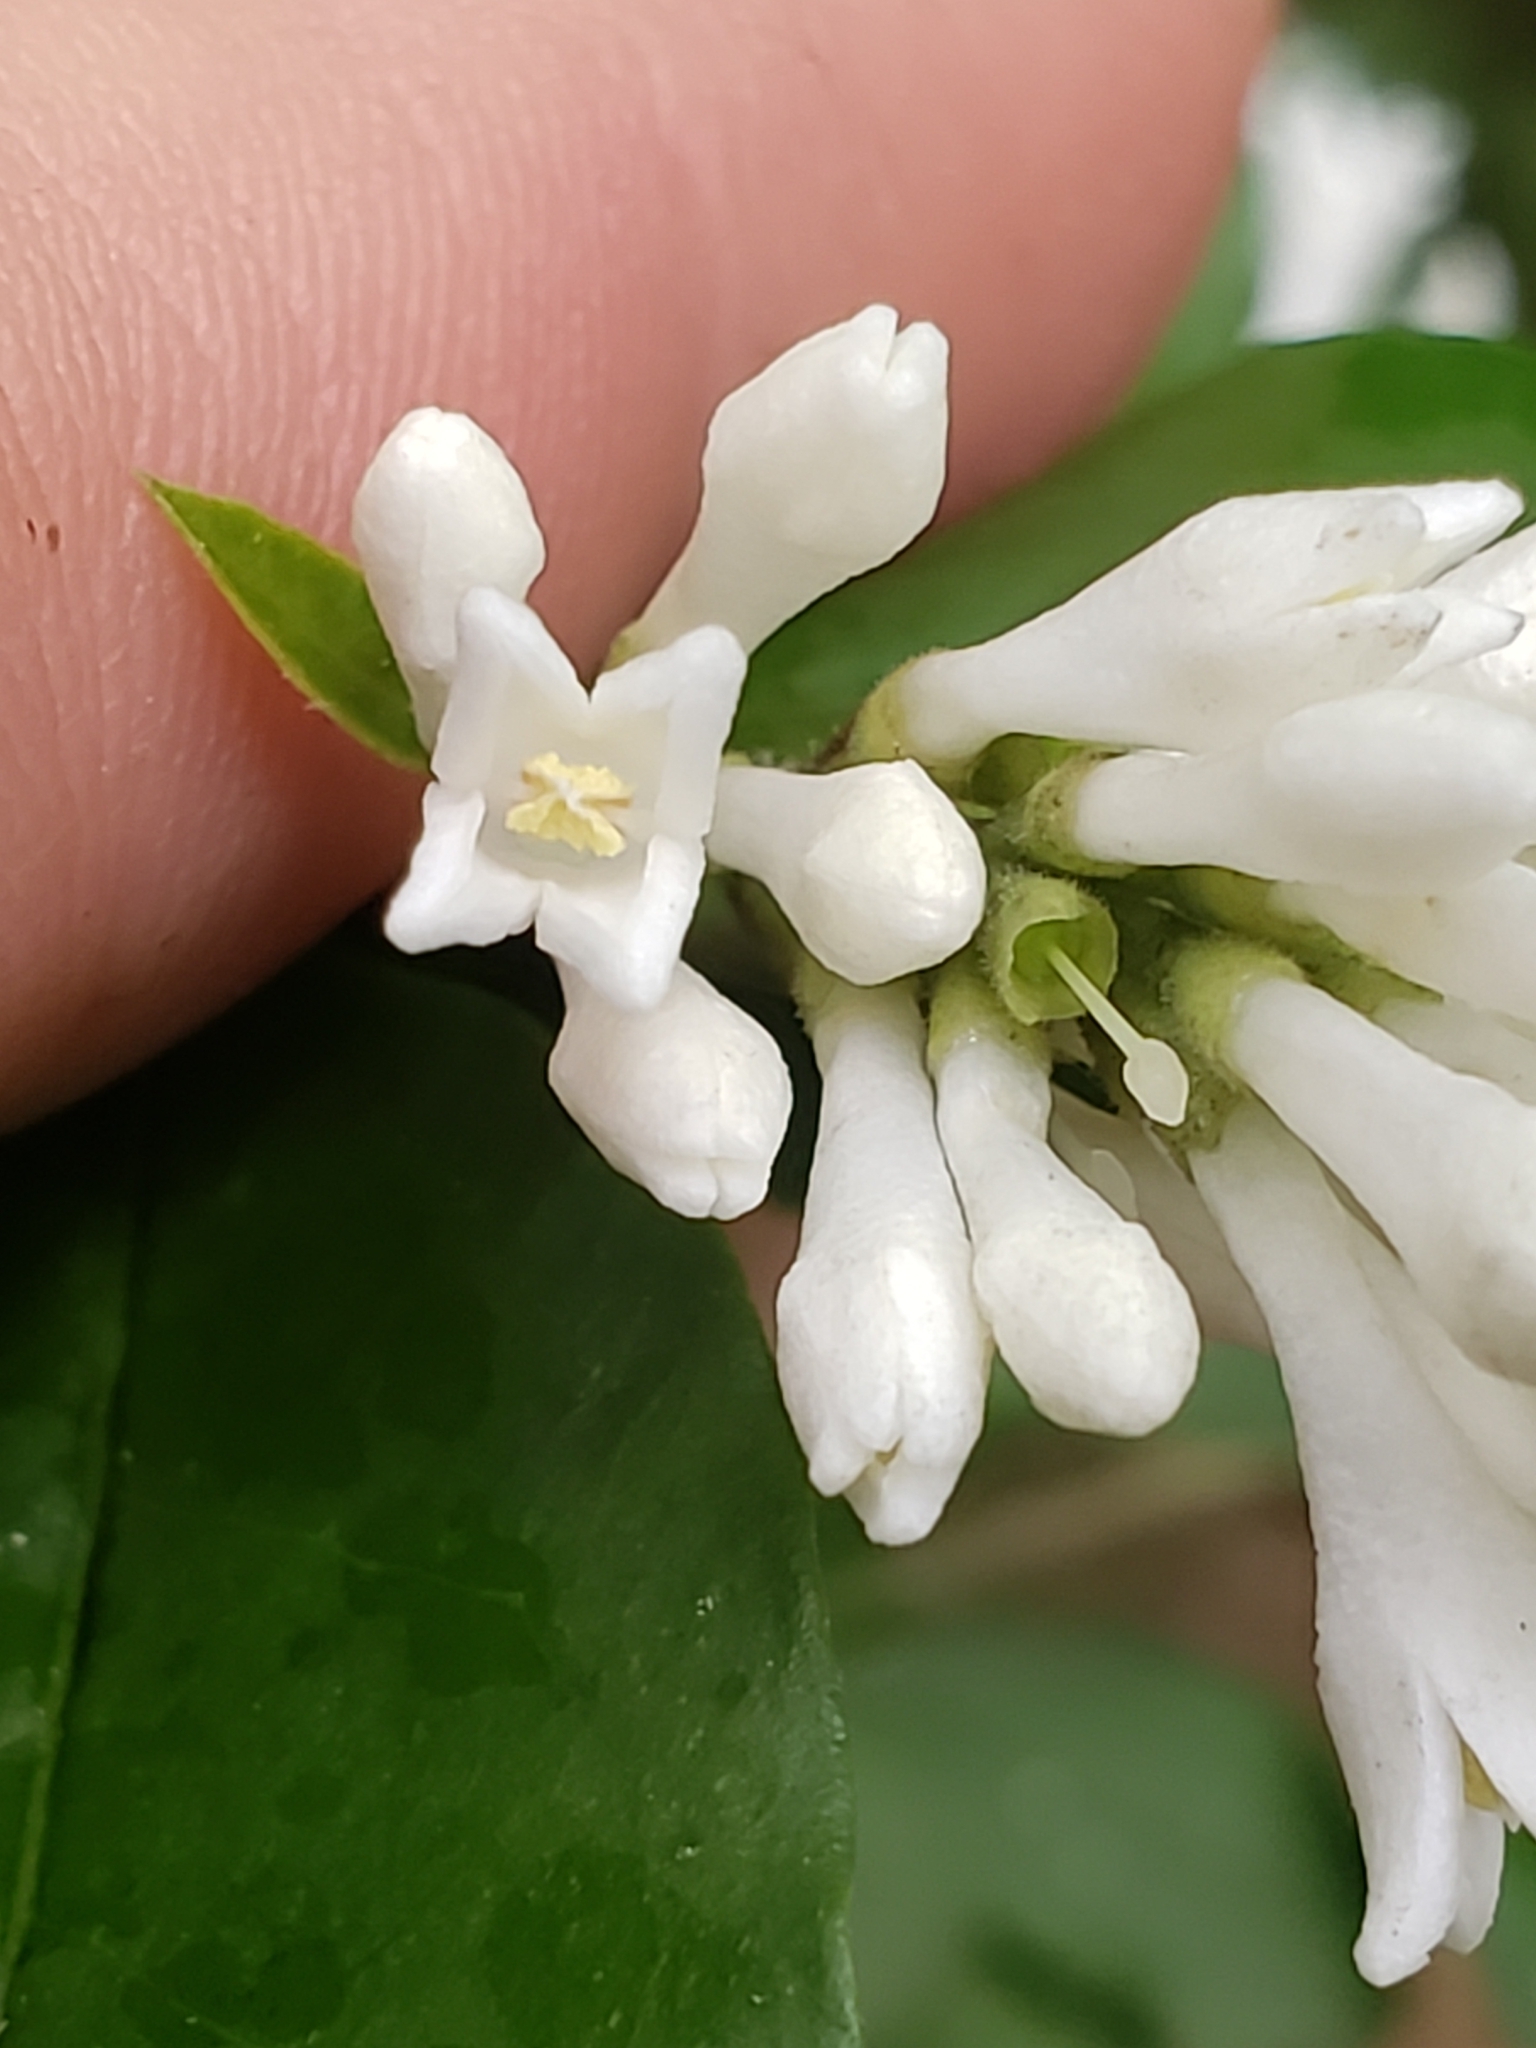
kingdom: Plantae
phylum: Tracheophyta
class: Magnoliopsida
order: Lamiales
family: Oleaceae
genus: Ligustrum
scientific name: Ligustrum obtusifolium
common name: Border privet
